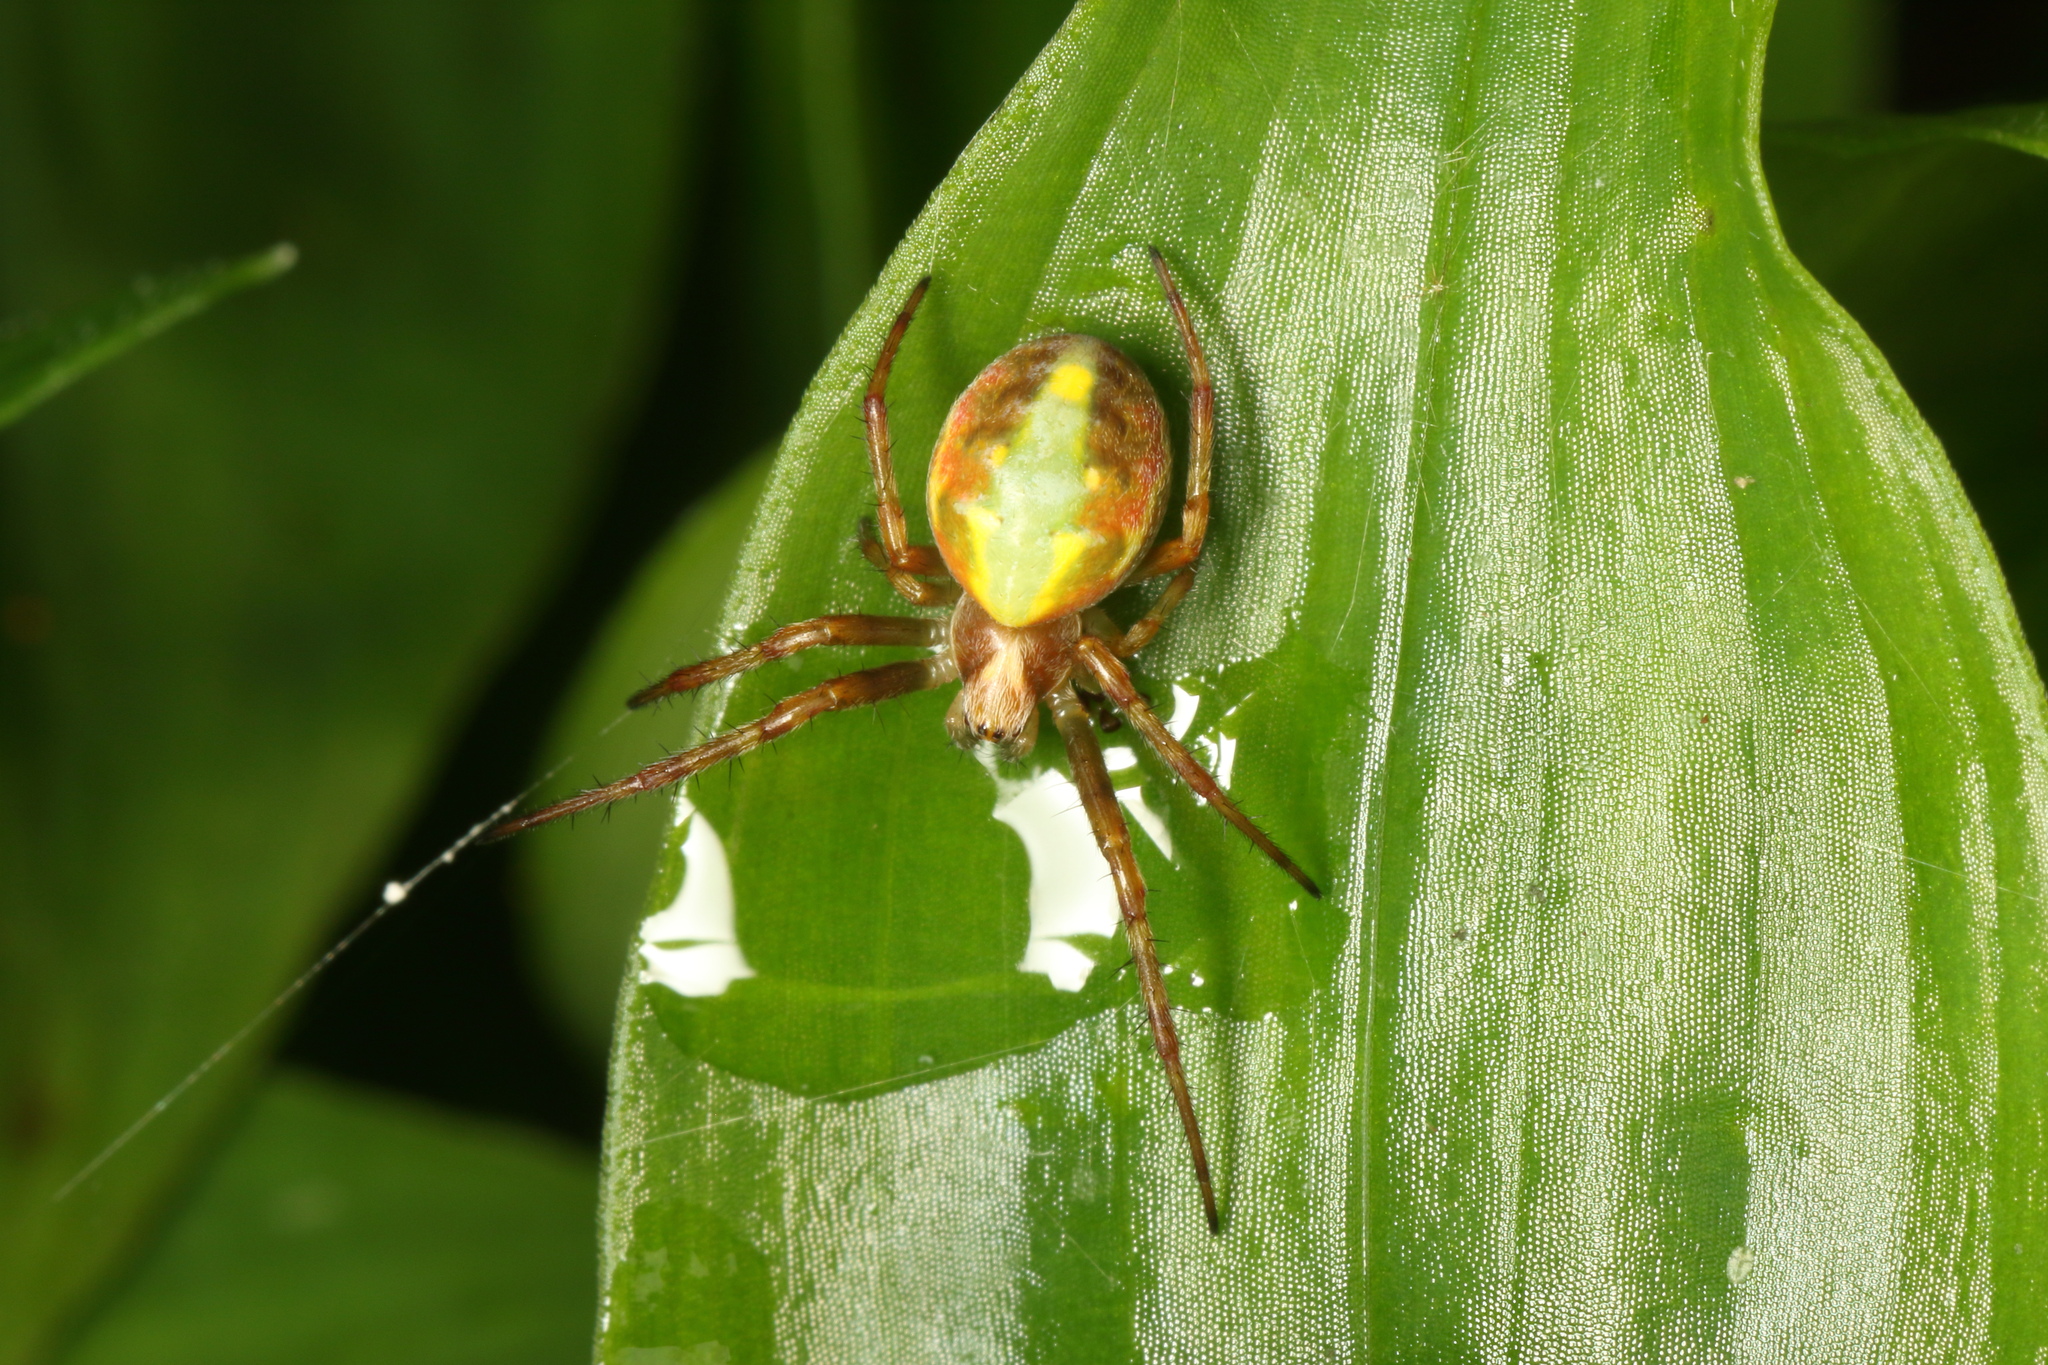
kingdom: Animalia
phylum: Arthropoda
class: Arachnida
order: Araneae
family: Araneidae
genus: Novaranea
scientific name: Novaranea queribunda
